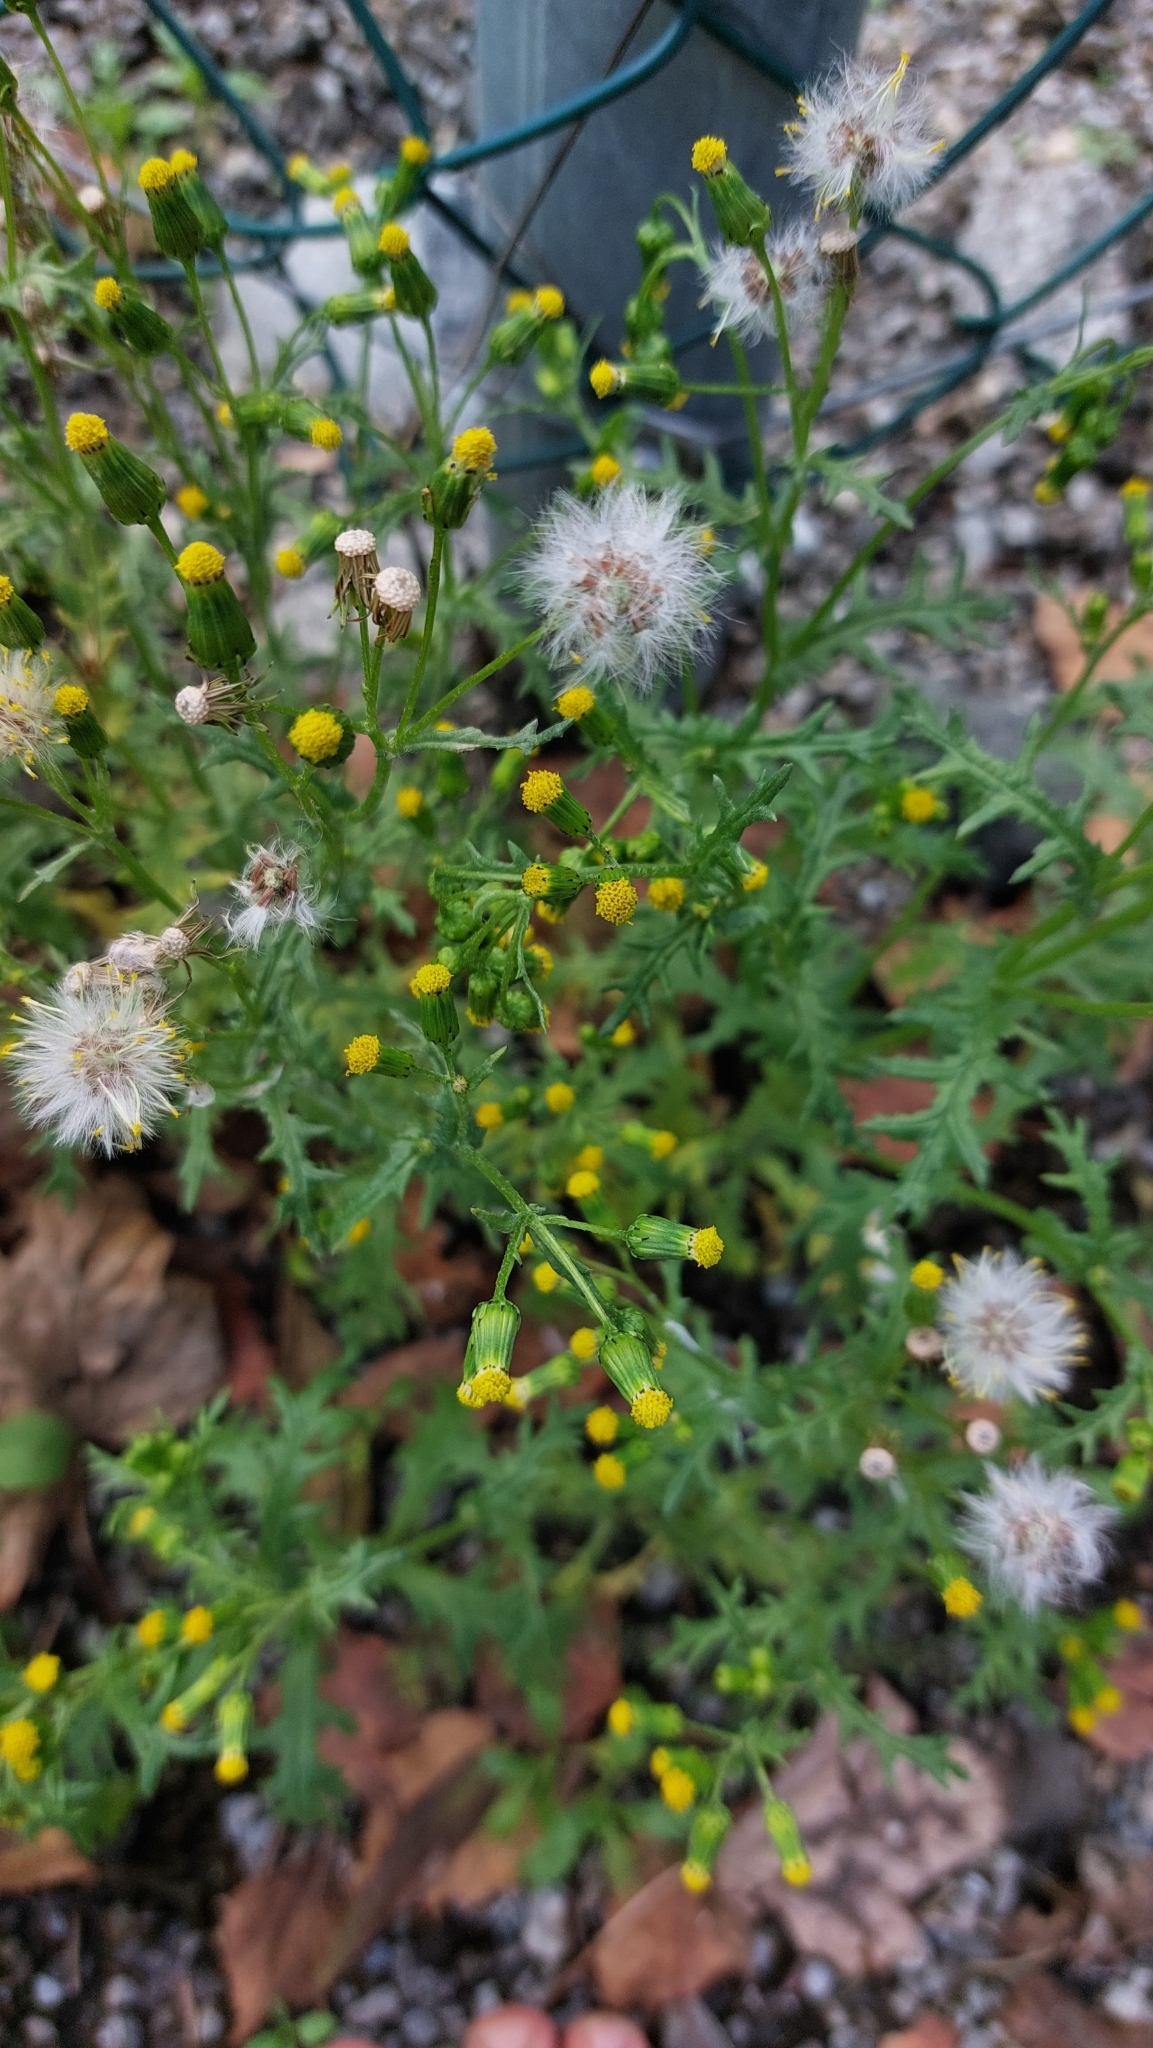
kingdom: Plantae
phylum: Tracheophyta
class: Magnoliopsida
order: Asterales
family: Asteraceae
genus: Senecio
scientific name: Senecio vulgaris
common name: Old-man-in-the-spring
